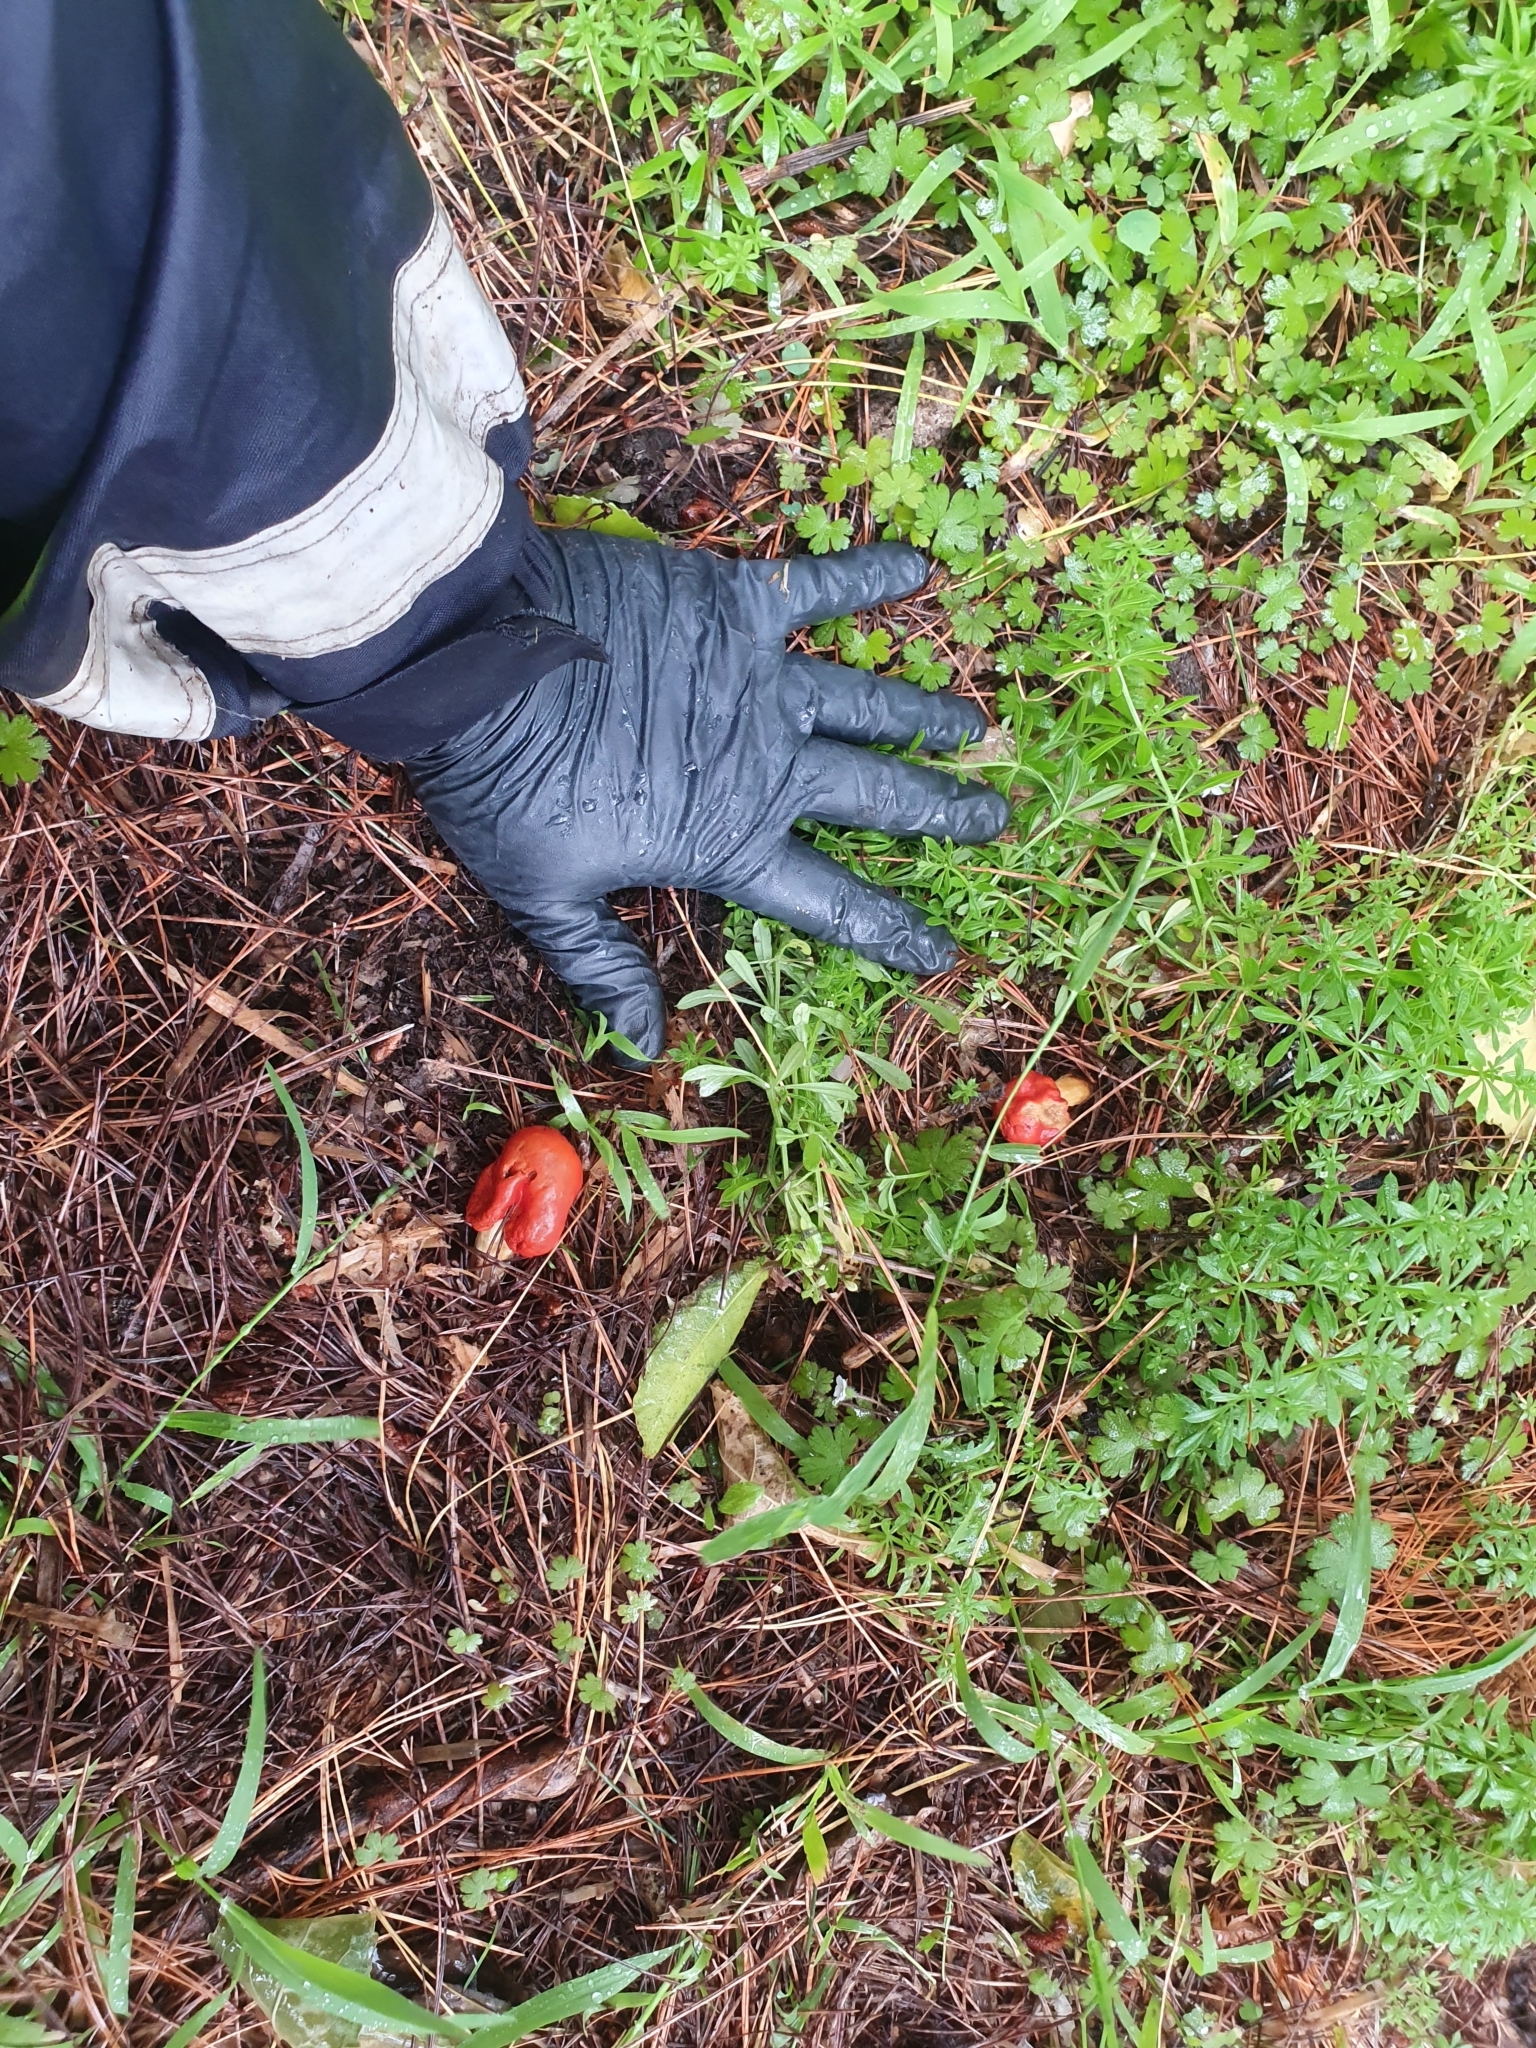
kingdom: Fungi
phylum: Basidiomycota
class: Agaricomycetes
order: Agaricales
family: Strophariaceae
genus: Leratiomyces
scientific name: Leratiomyces erythrocephalus
